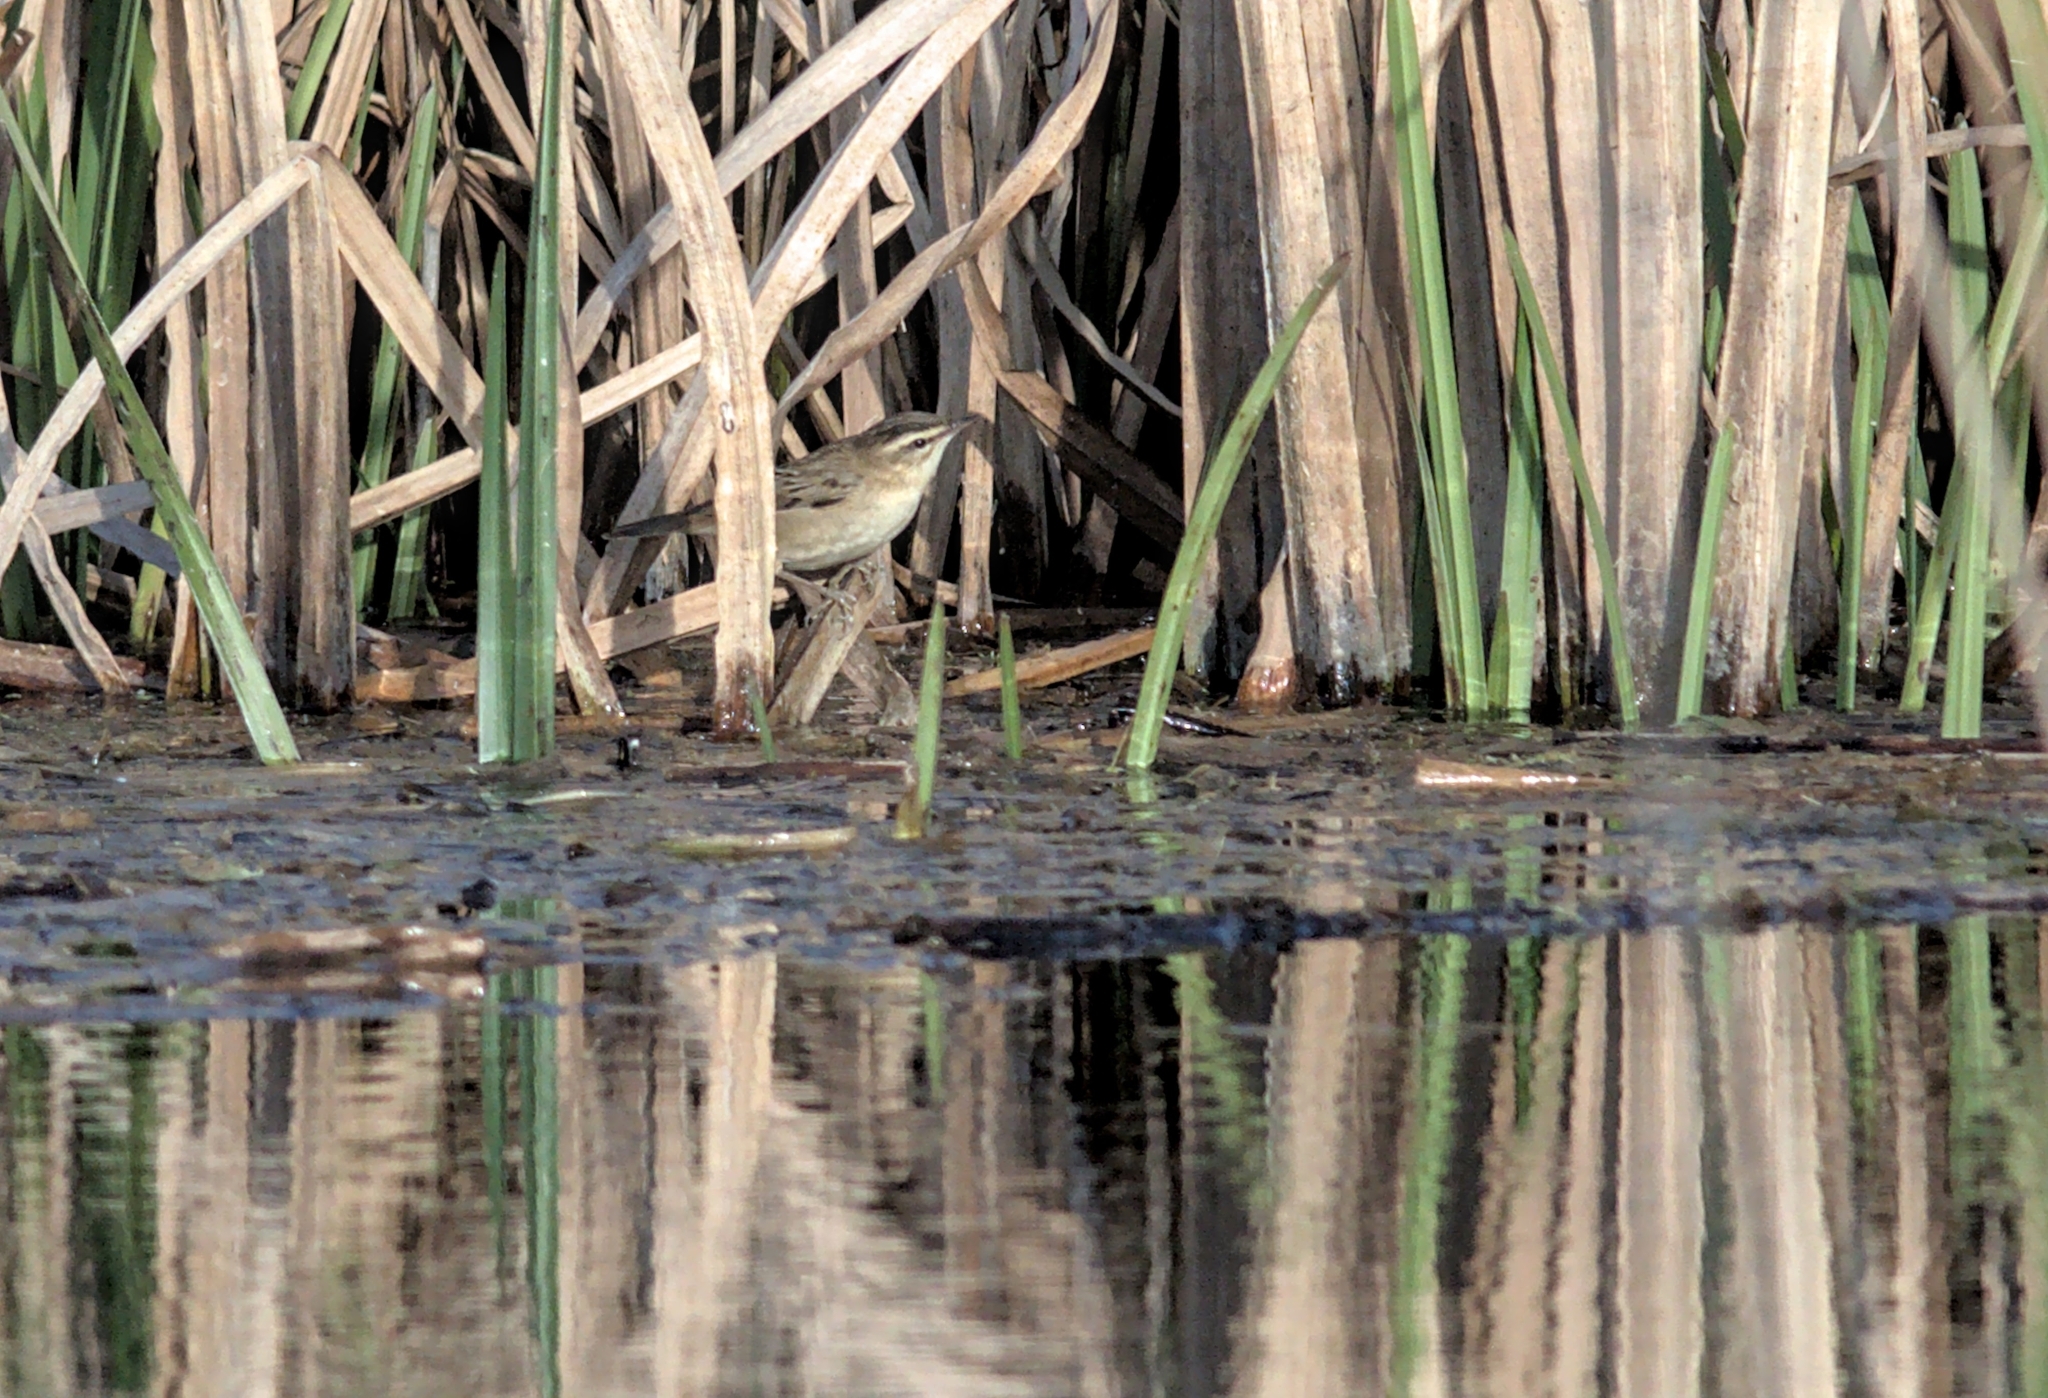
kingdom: Animalia
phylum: Chordata
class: Aves
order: Passeriformes
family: Acrocephalidae
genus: Acrocephalus
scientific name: Acrocephalus schoenobaenus
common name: Sedge warbler
